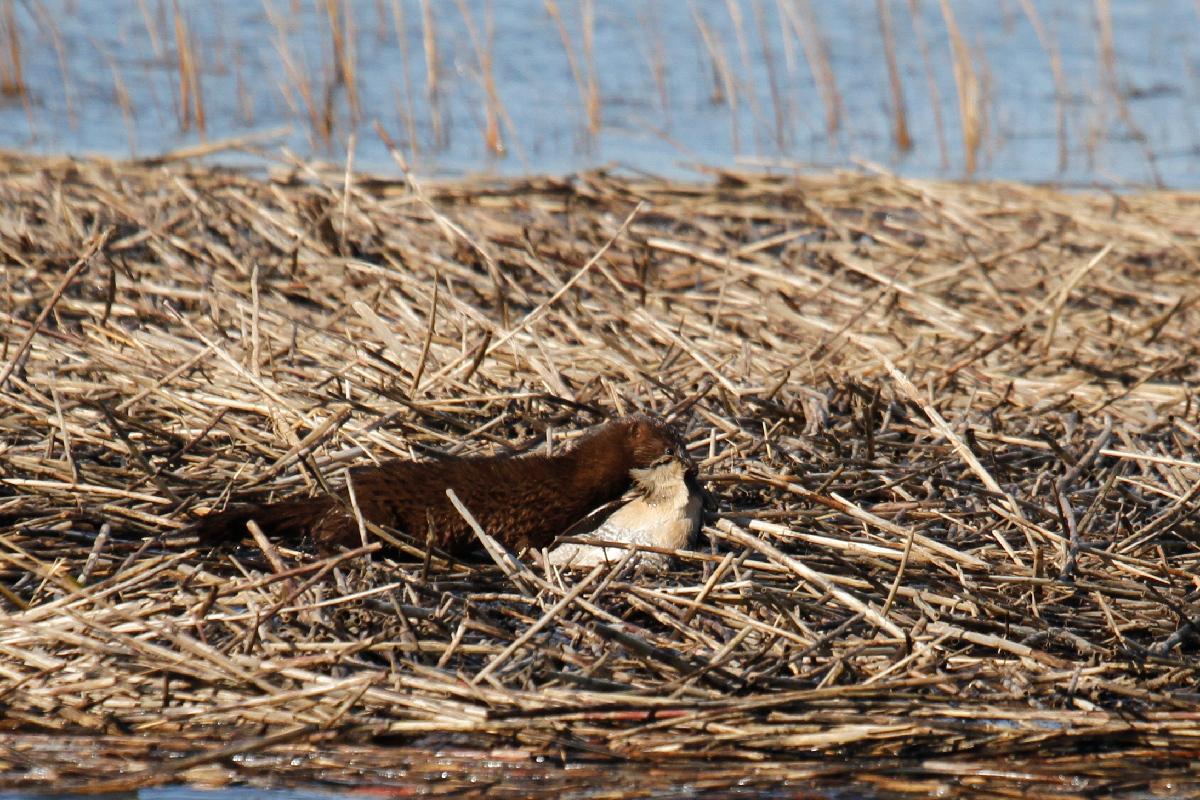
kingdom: Animalia
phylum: Chordata
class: Aves
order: Gruiformes
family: Rallidae
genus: Rallus
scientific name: Rallus crepitans
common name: Clapper rail
